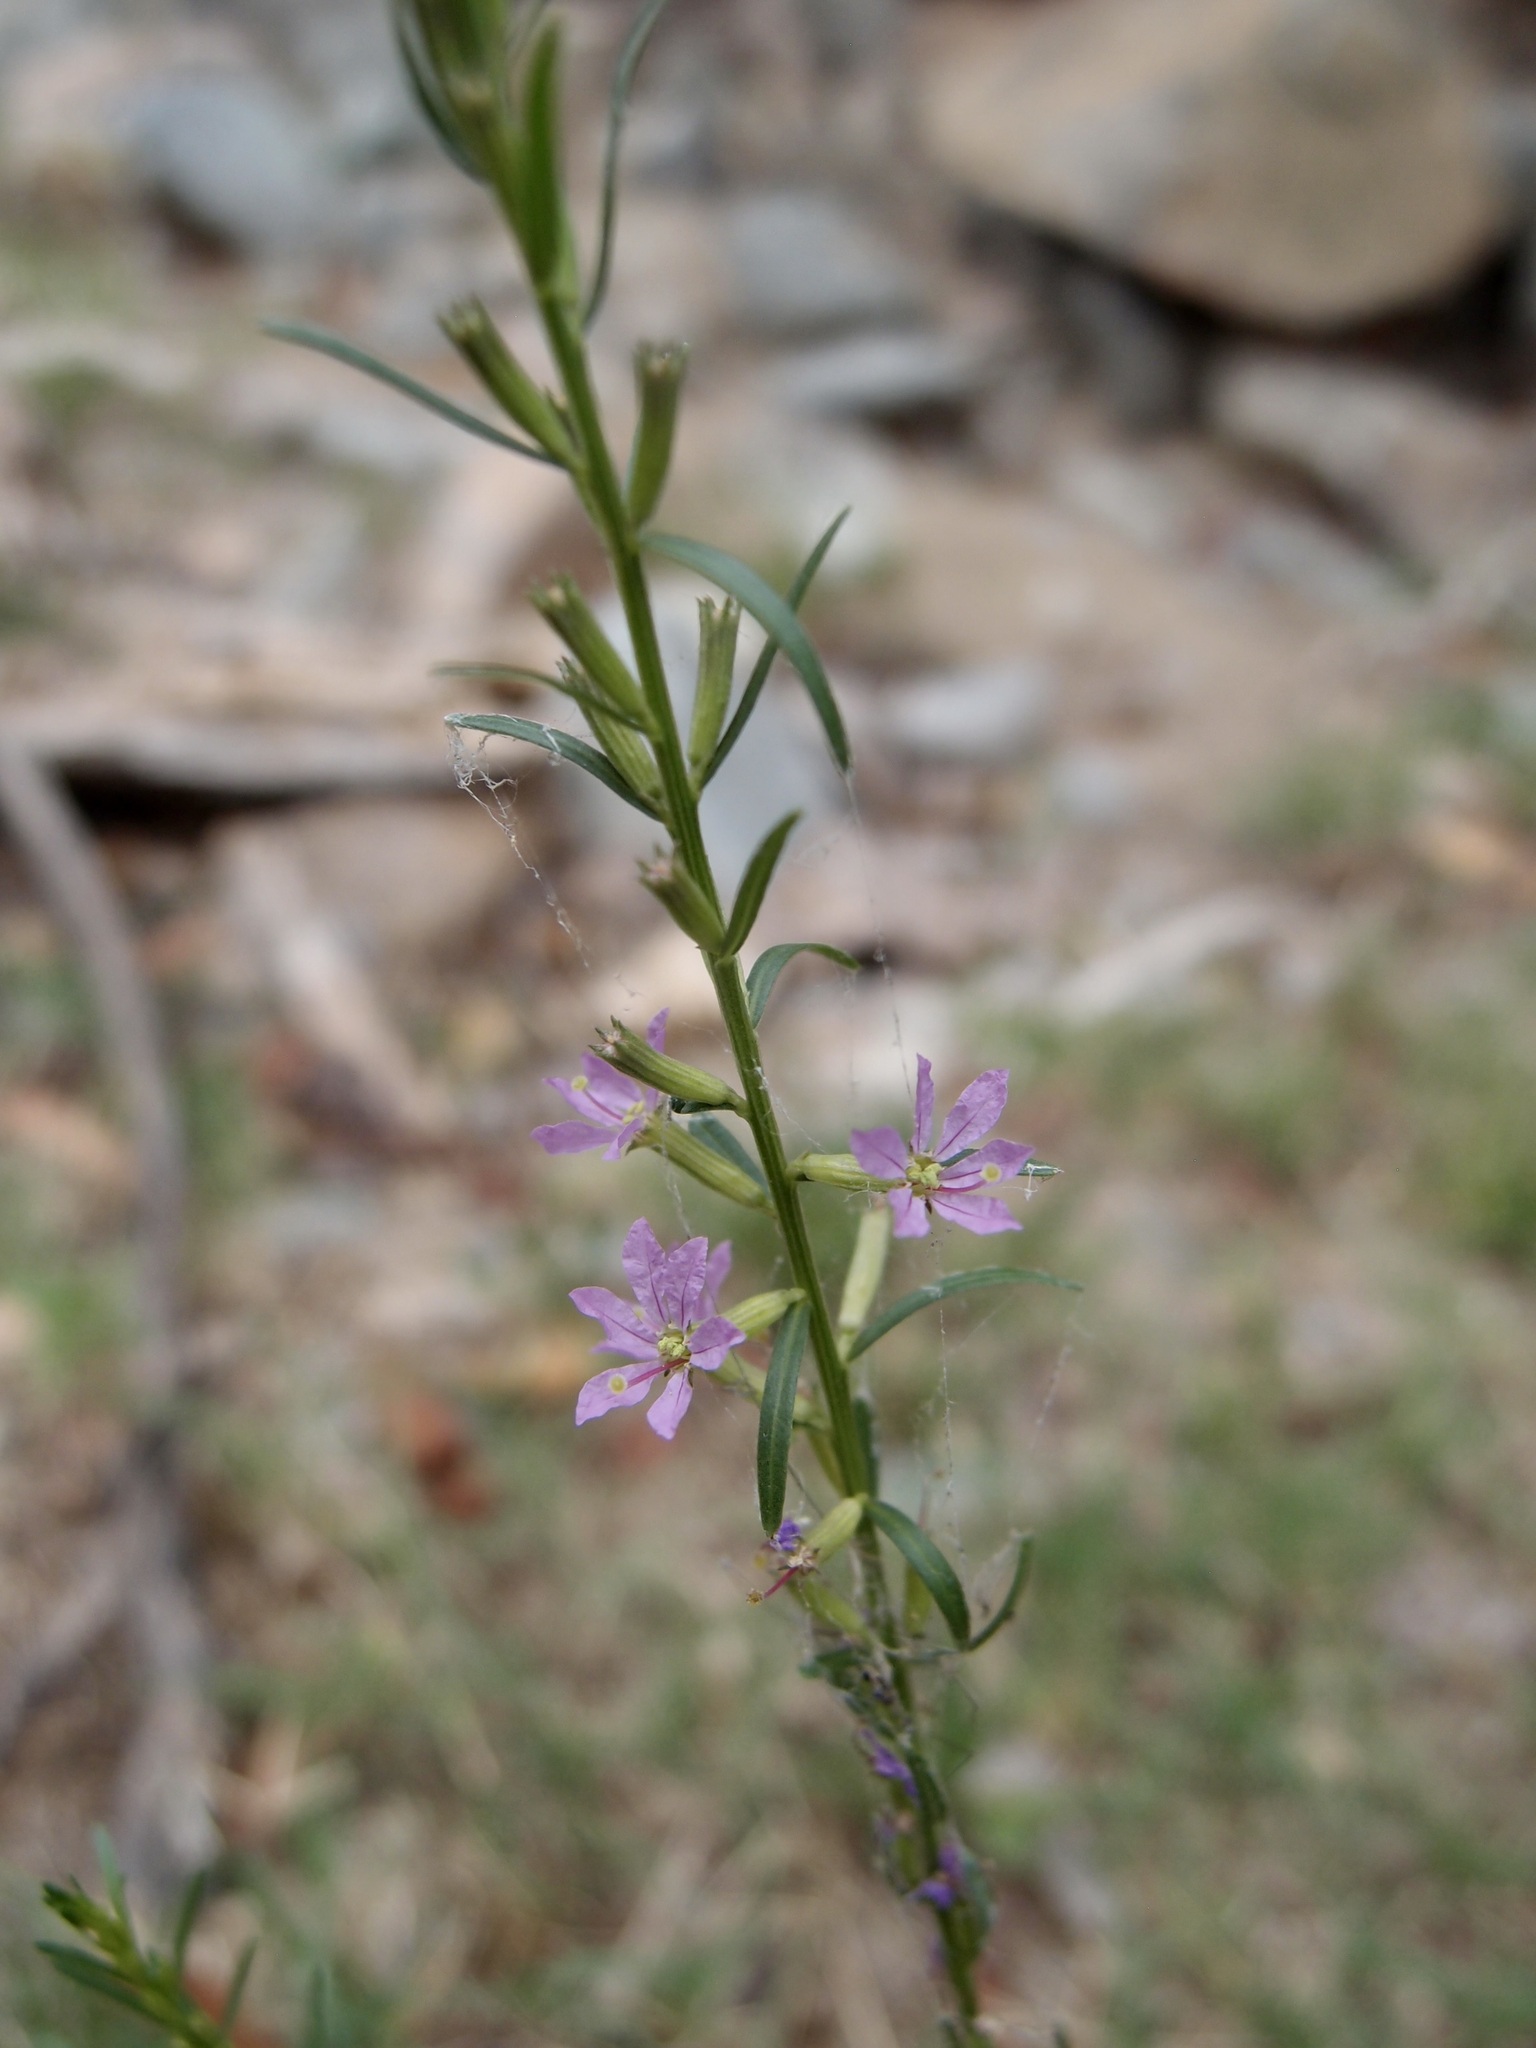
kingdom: Plantae
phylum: Tracheophyta
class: Magnoliopsida
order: Myrtales
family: Lythraceae
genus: Lythrum
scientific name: Lythrum californicum
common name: California loosestrife
